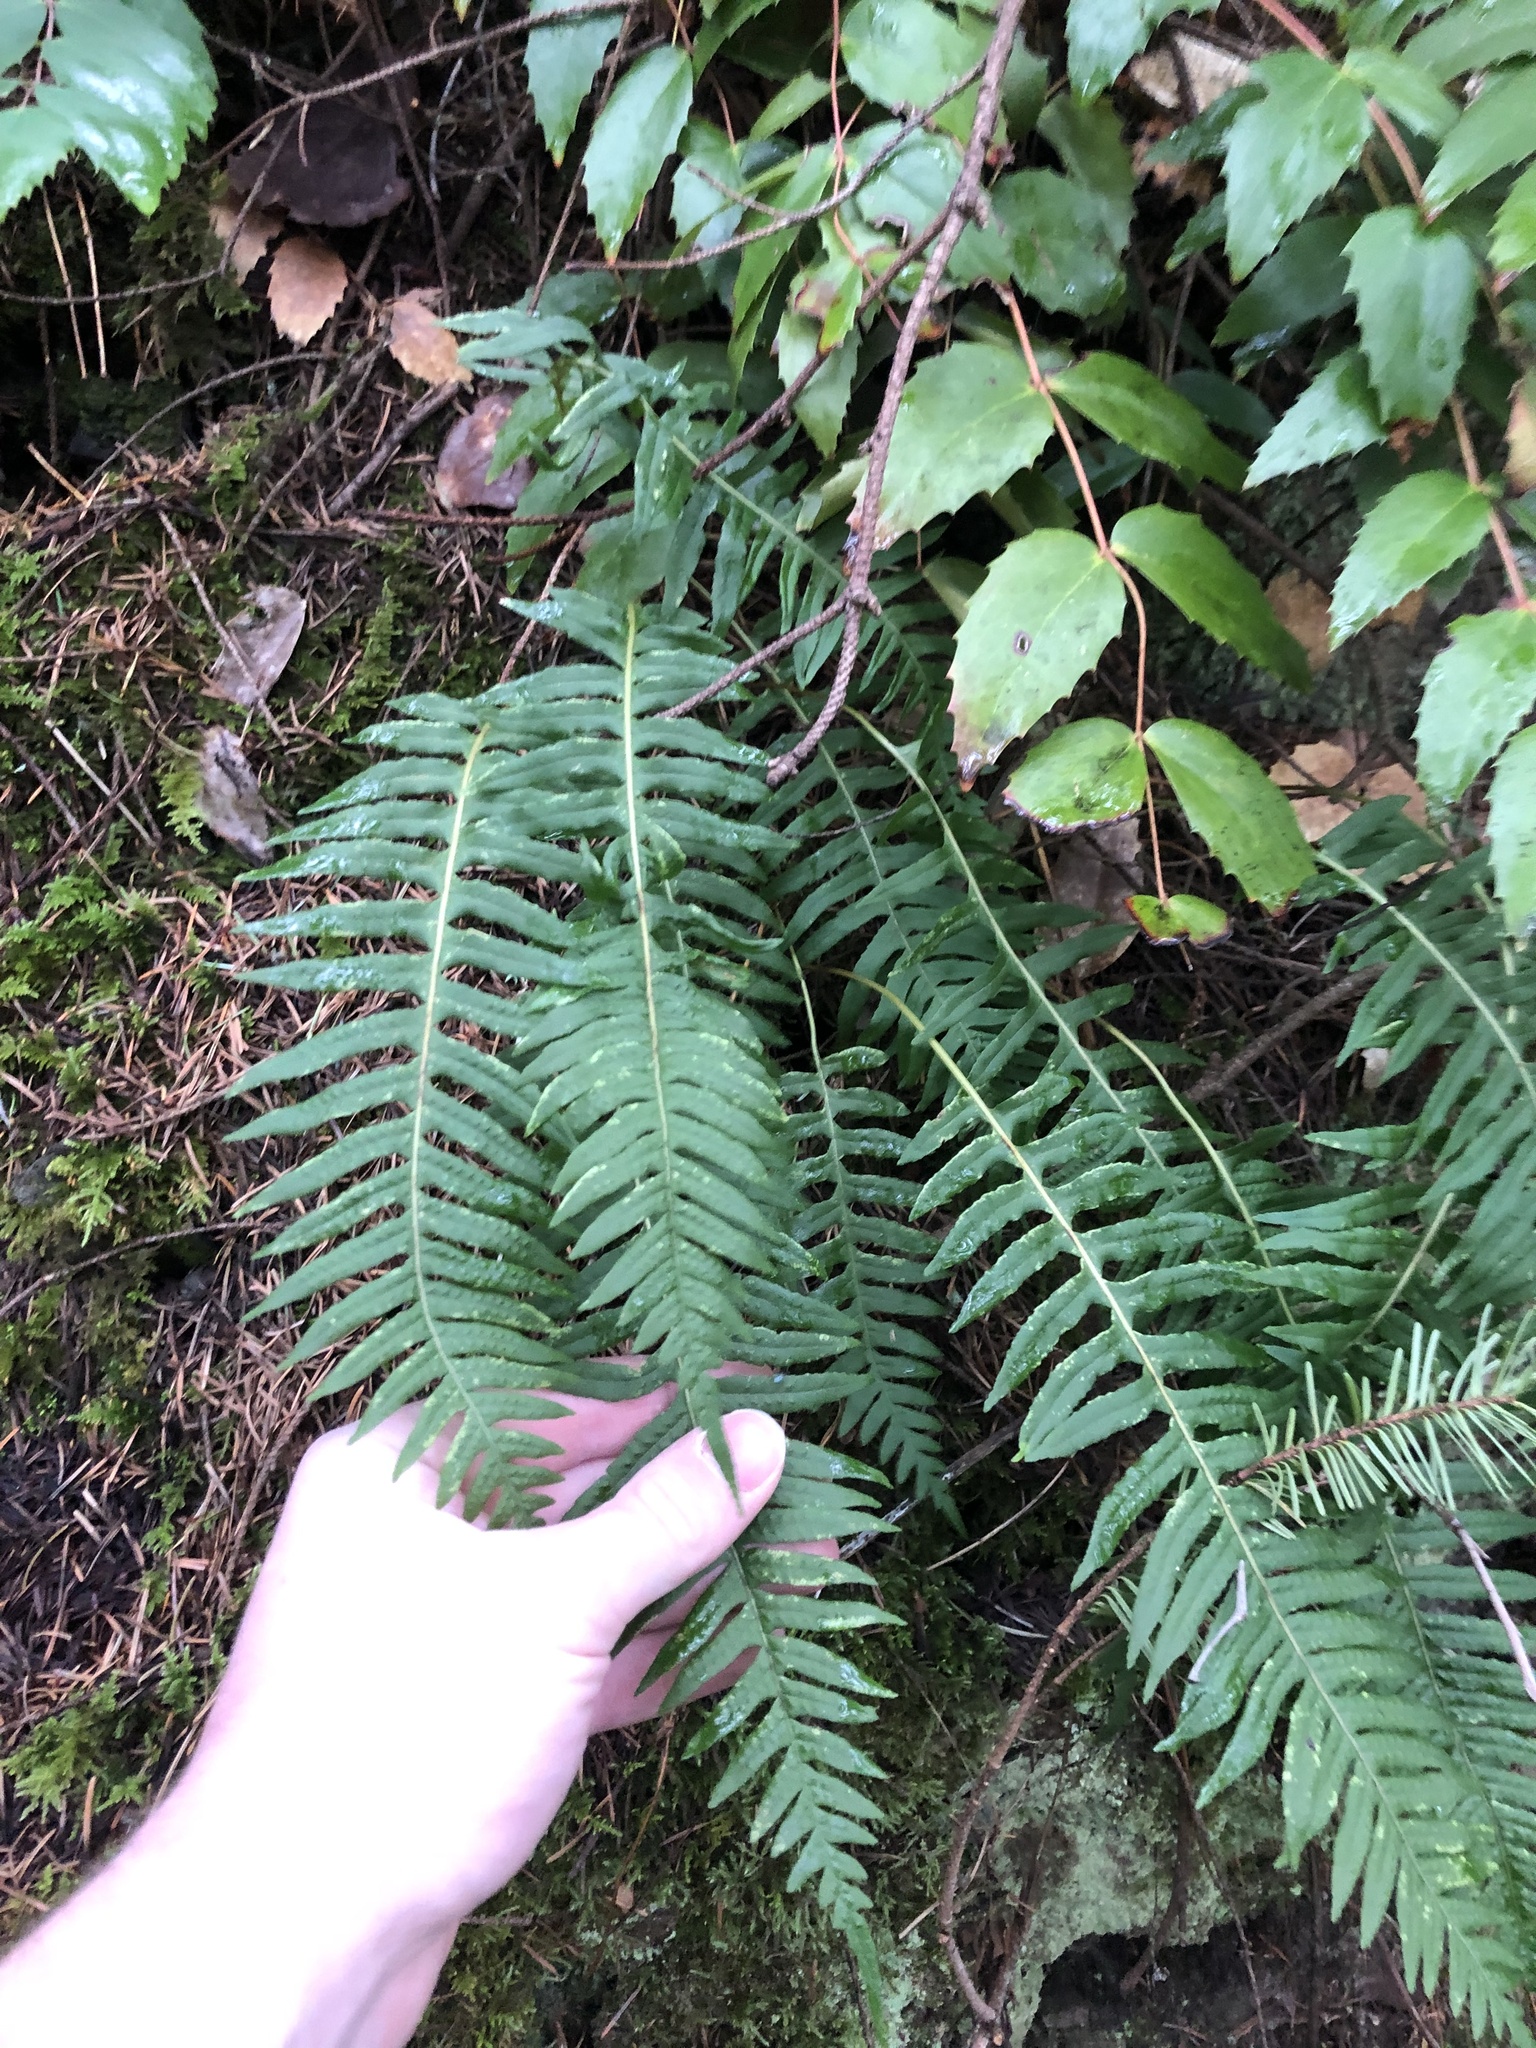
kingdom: Plantae
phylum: Tracheophyta
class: Polypodiopsida
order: Polypodiales
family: Polypodiaceae
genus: Polypodium
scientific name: Polypodium glycyrrhiza
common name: Licorice fern
